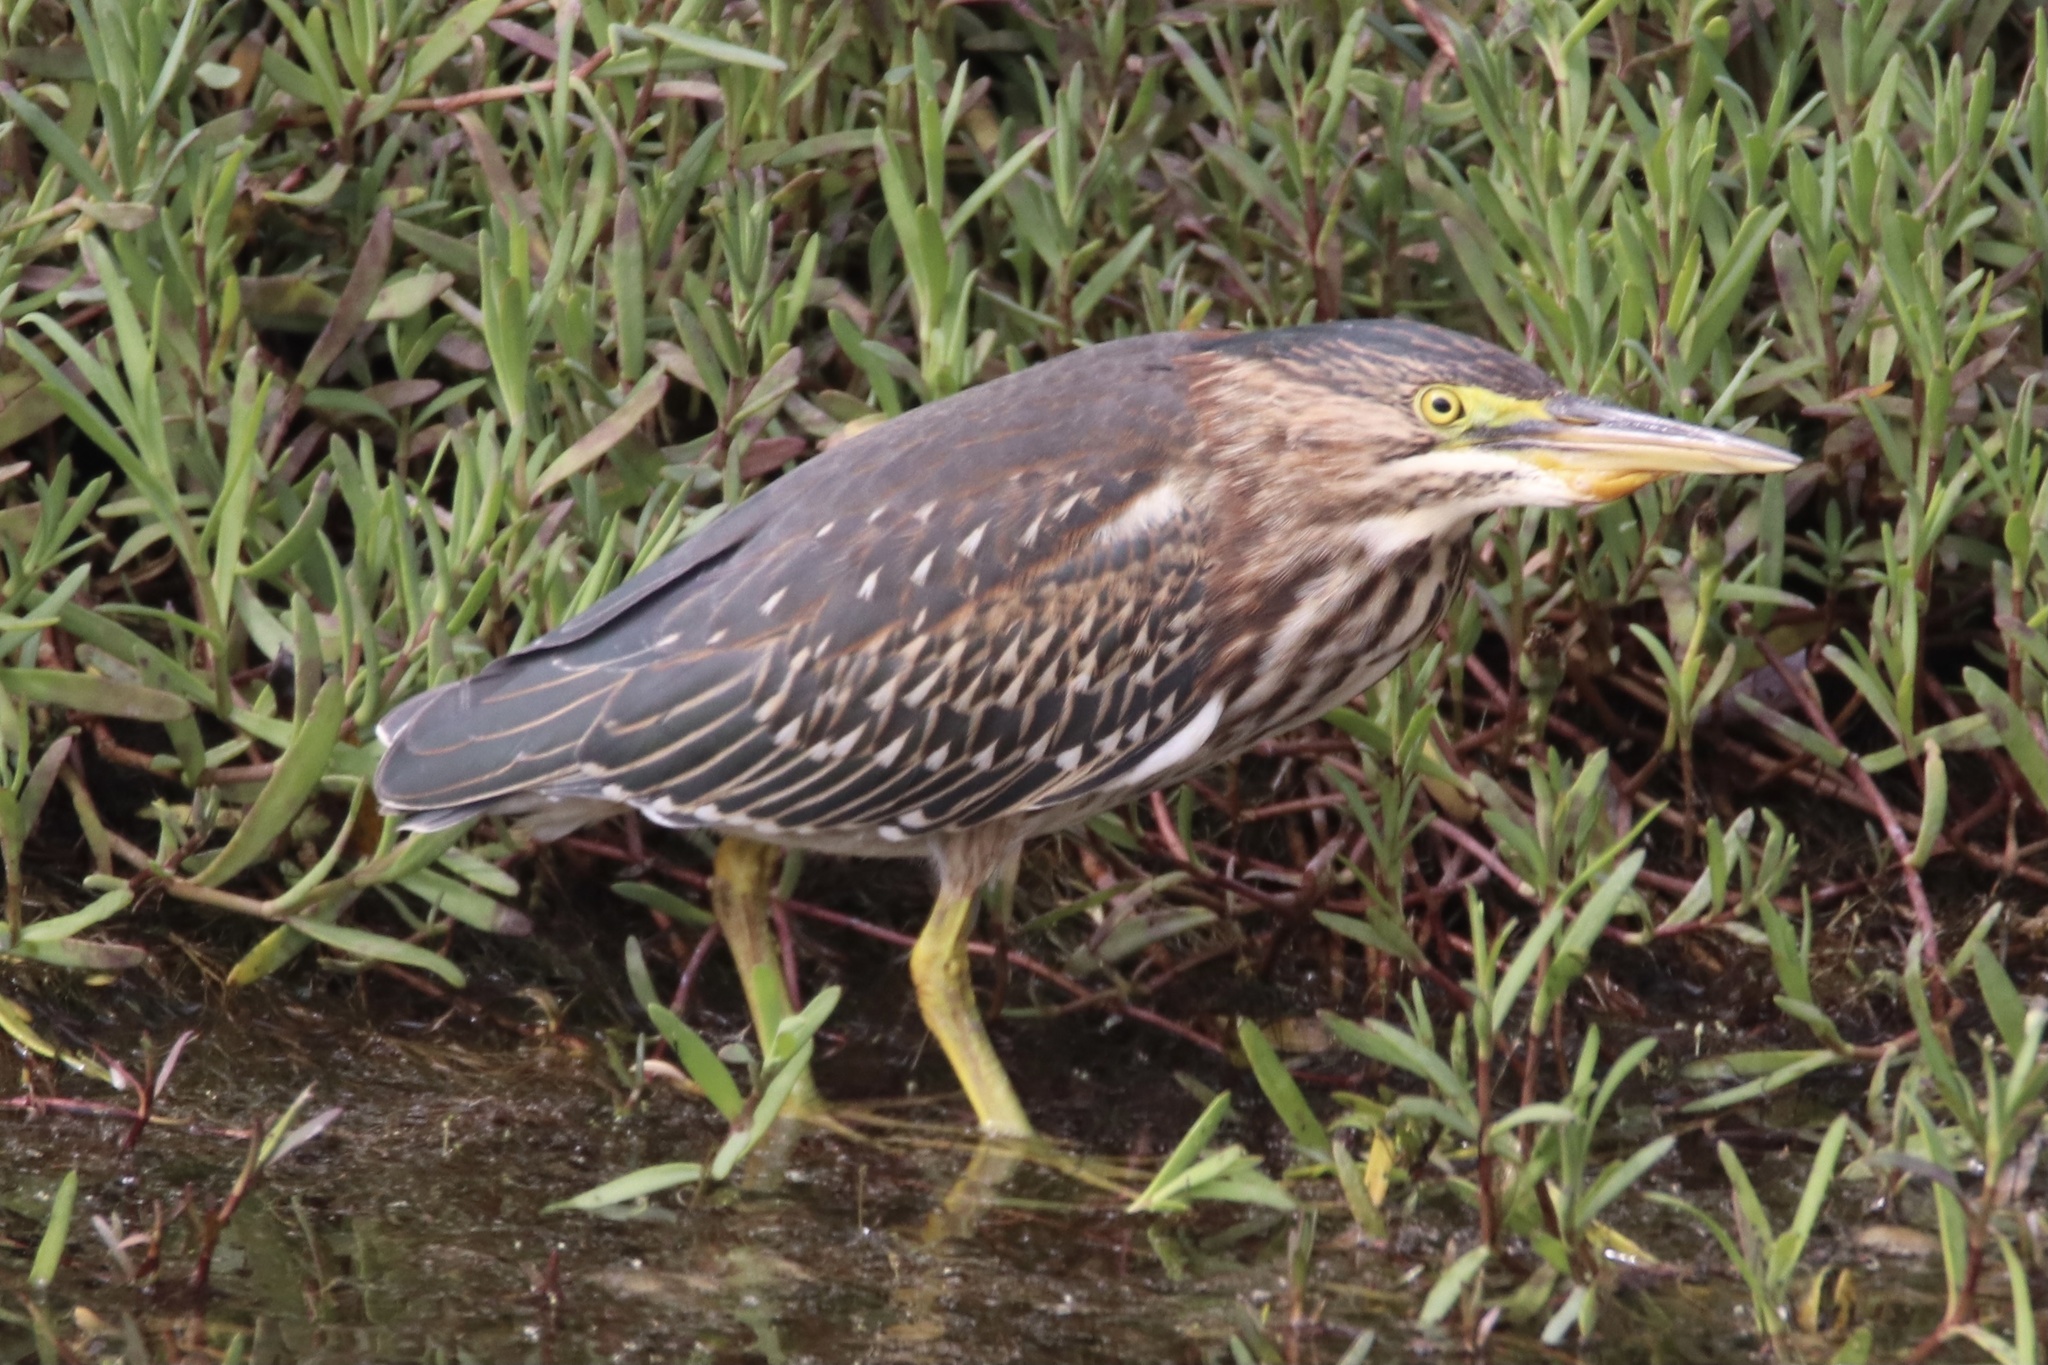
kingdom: Animalia
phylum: Chordata
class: Aves
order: Pelecaniformes
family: Ardeidae
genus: Butorides
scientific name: Butorides virescens
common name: Green heron
